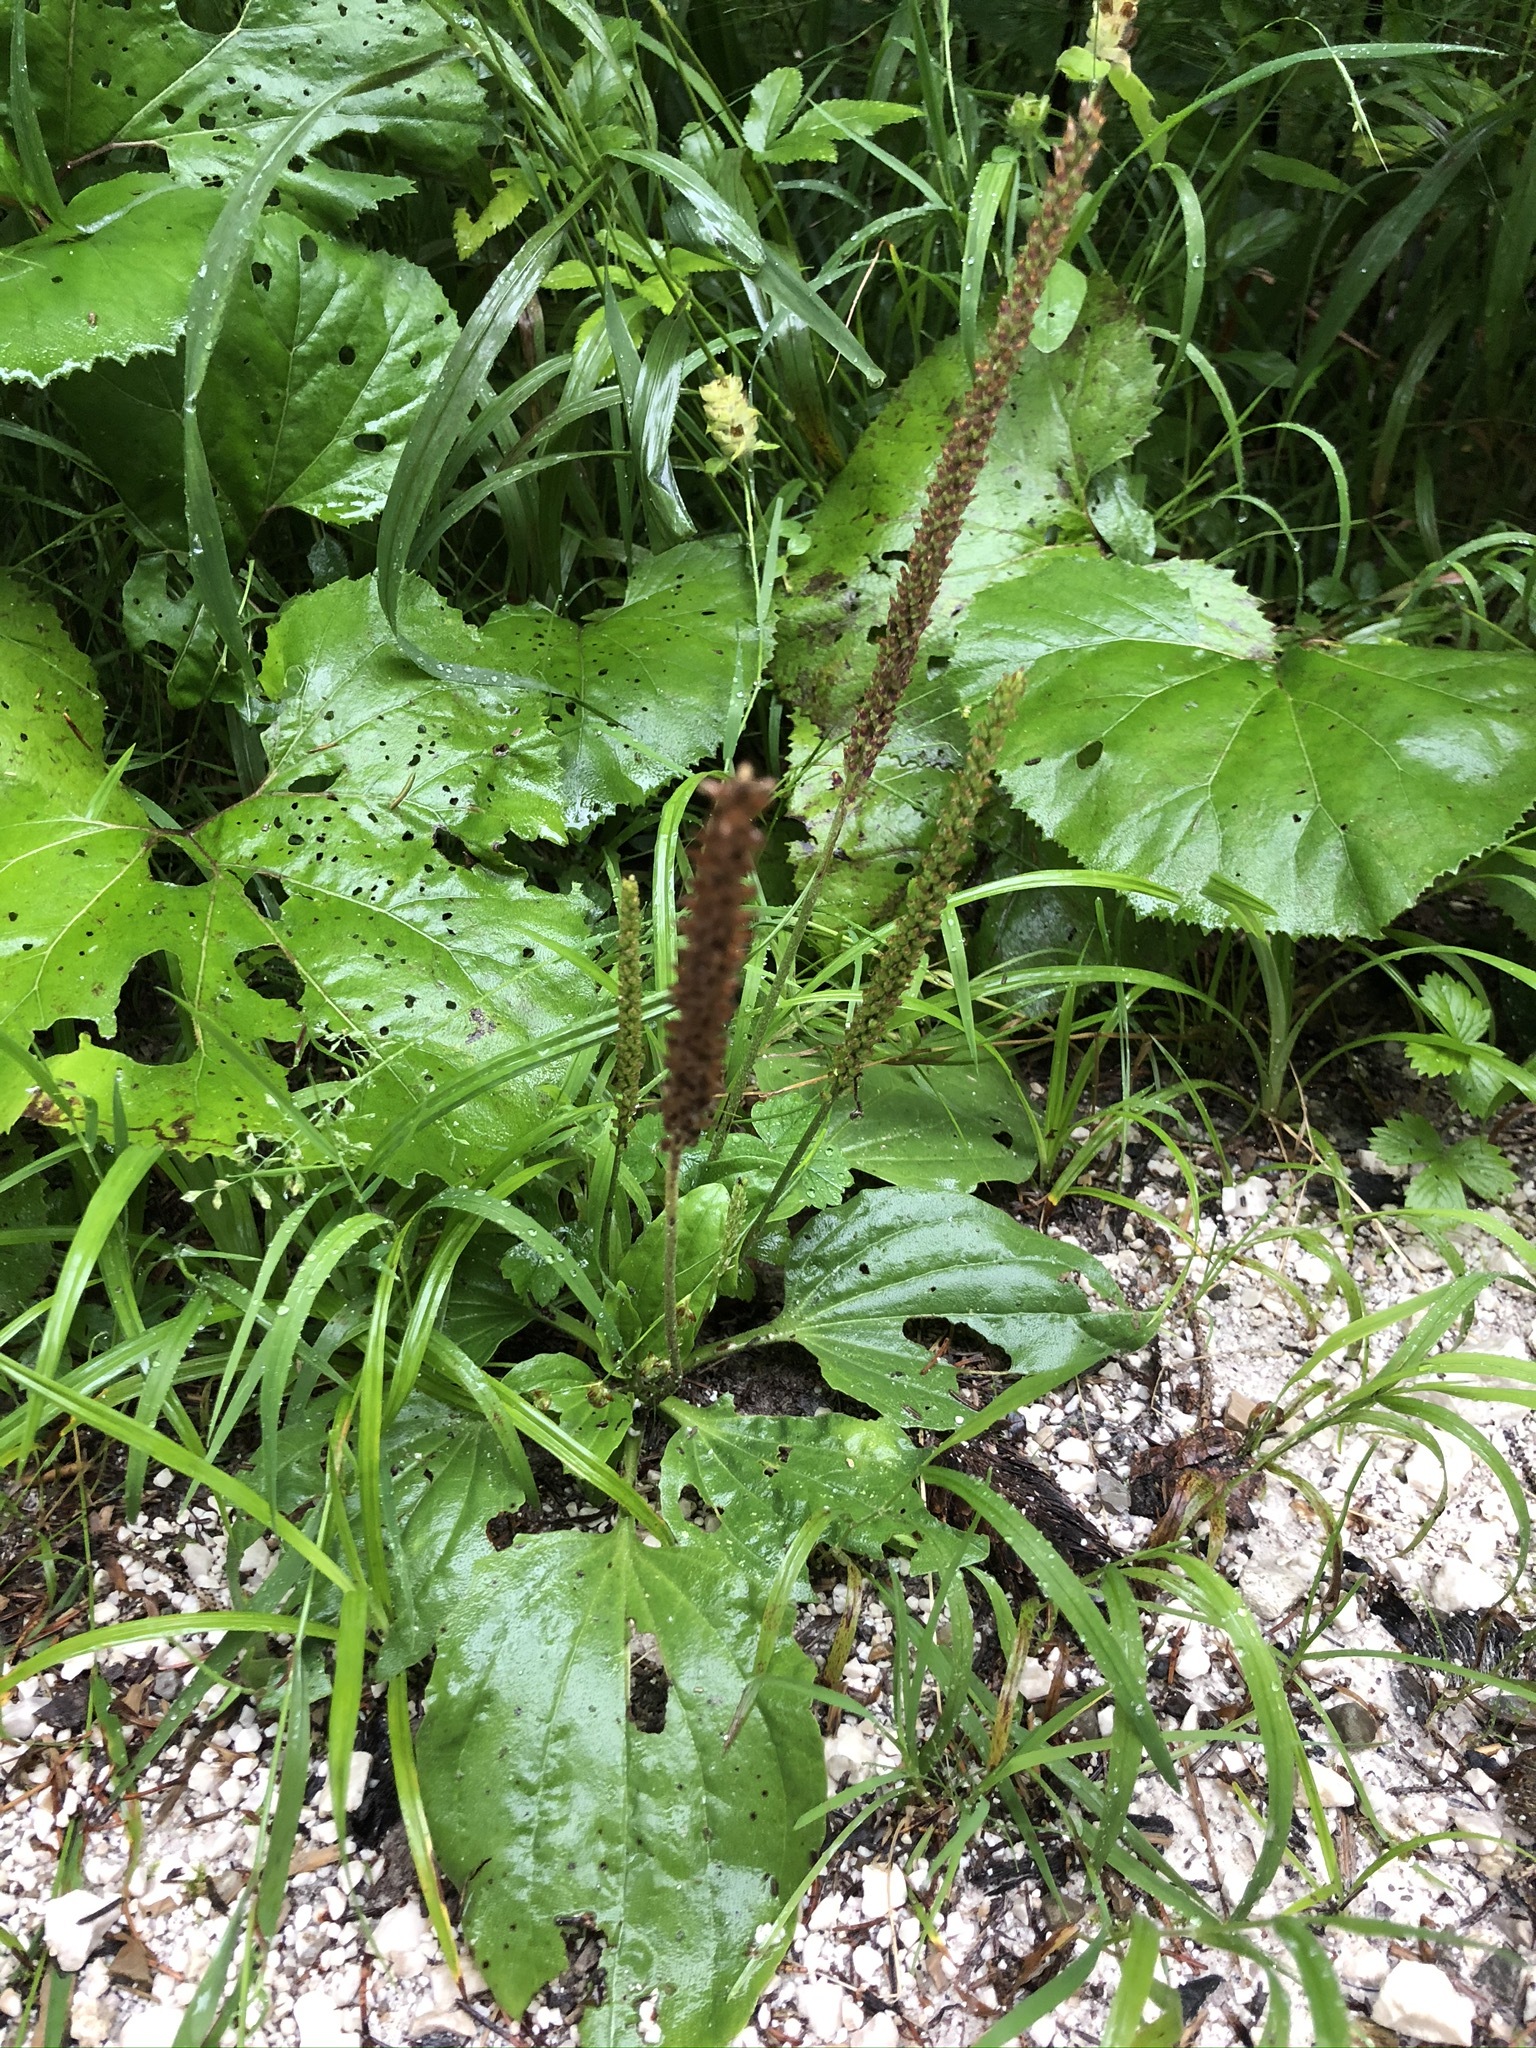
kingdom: Plantae
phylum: Tracheophyta
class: Magnoliopsida
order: Lamiales
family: Plantaginaceae
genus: Plantago
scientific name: Plantago major
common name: Common plantain
